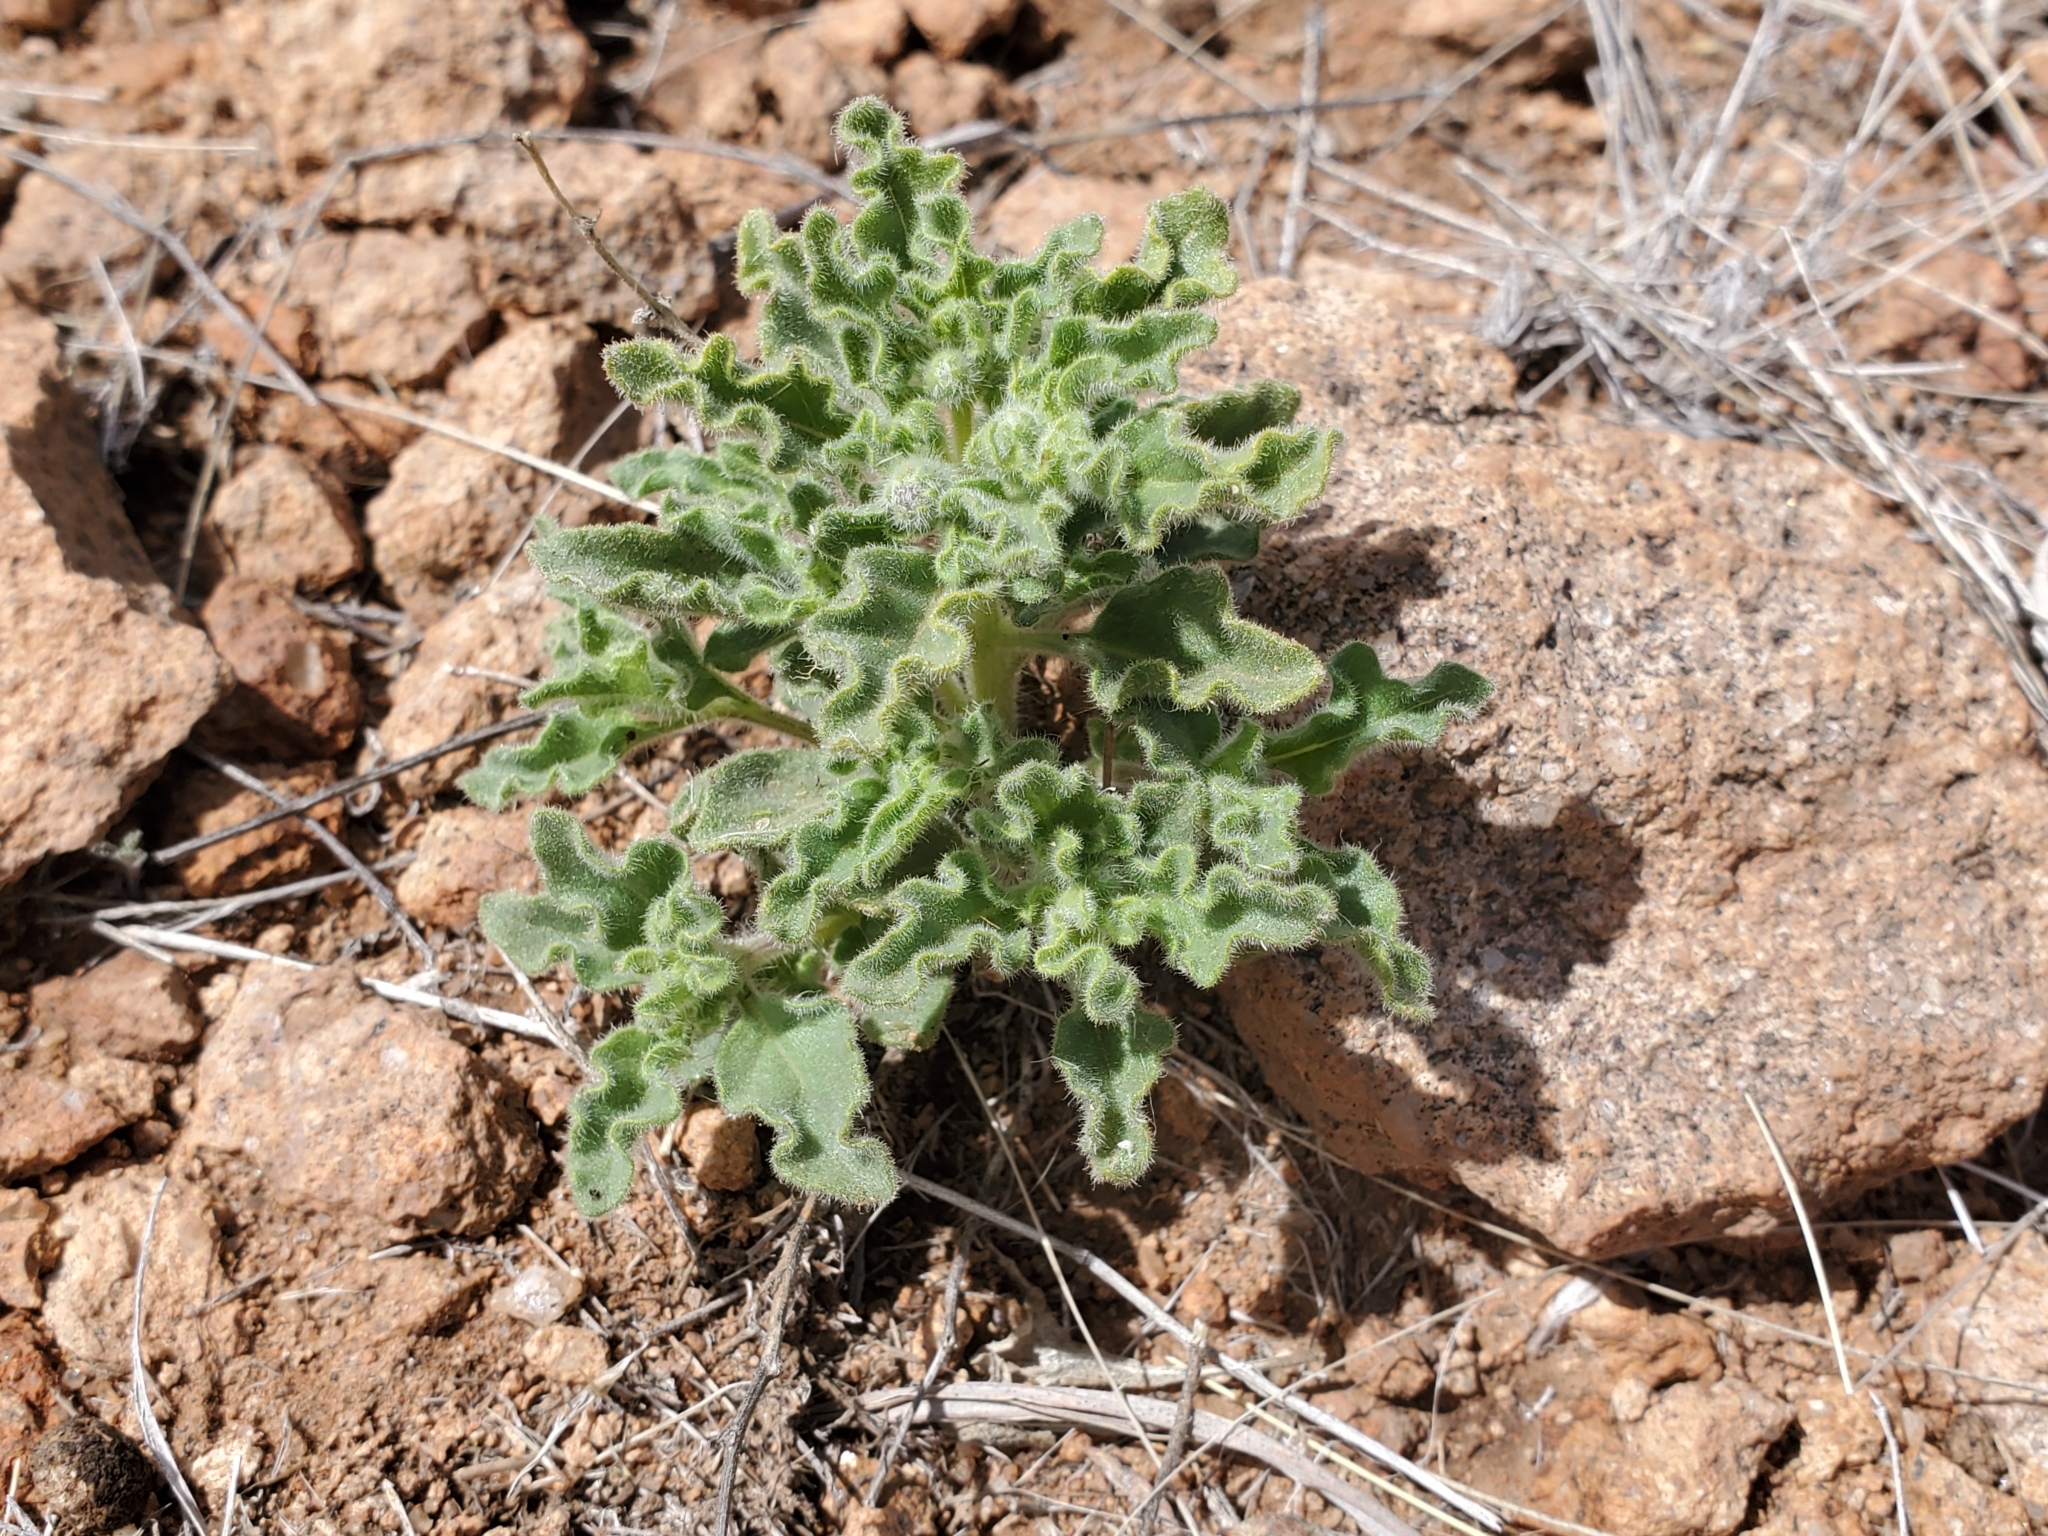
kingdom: Plantae
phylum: Tracheophyta
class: Magnoliopsida
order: Solanales
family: Solanaceae
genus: Chamaesaracha
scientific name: Chamaesaracha sordida
